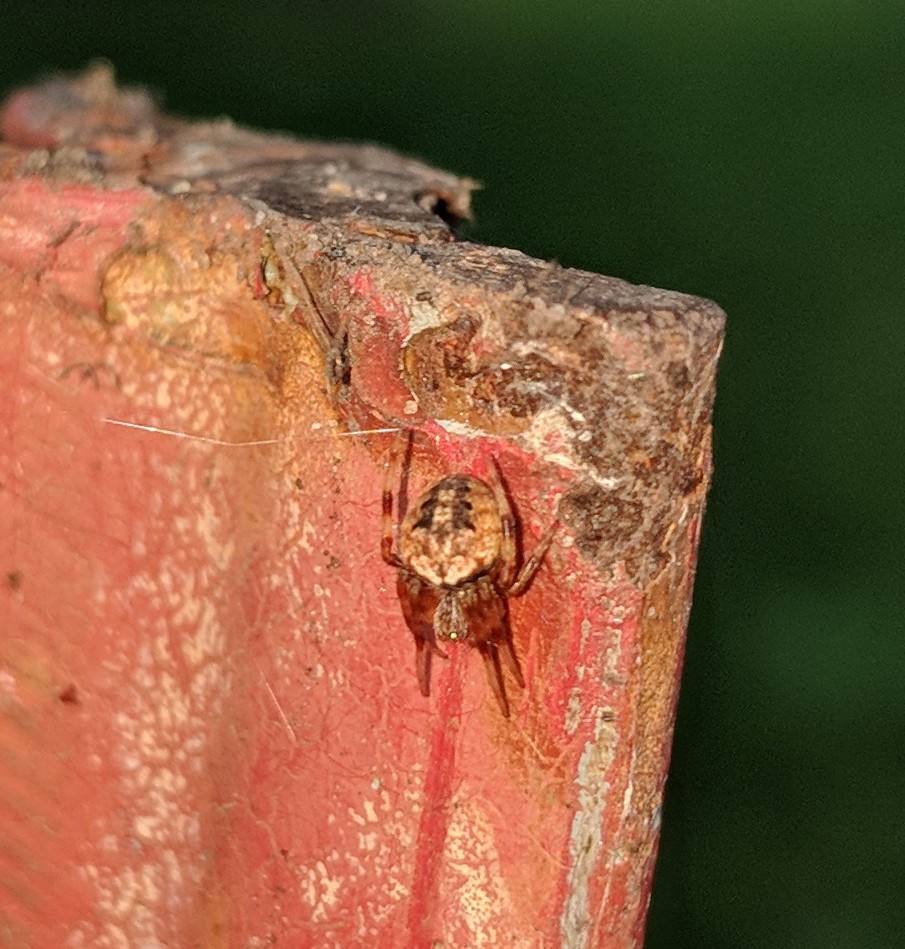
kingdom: Animalia
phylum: Arthropoda
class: Arachnida
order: Araneae
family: Araneidae
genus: Neoscona
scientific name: Neoscona arabesca
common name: Orb weavers
